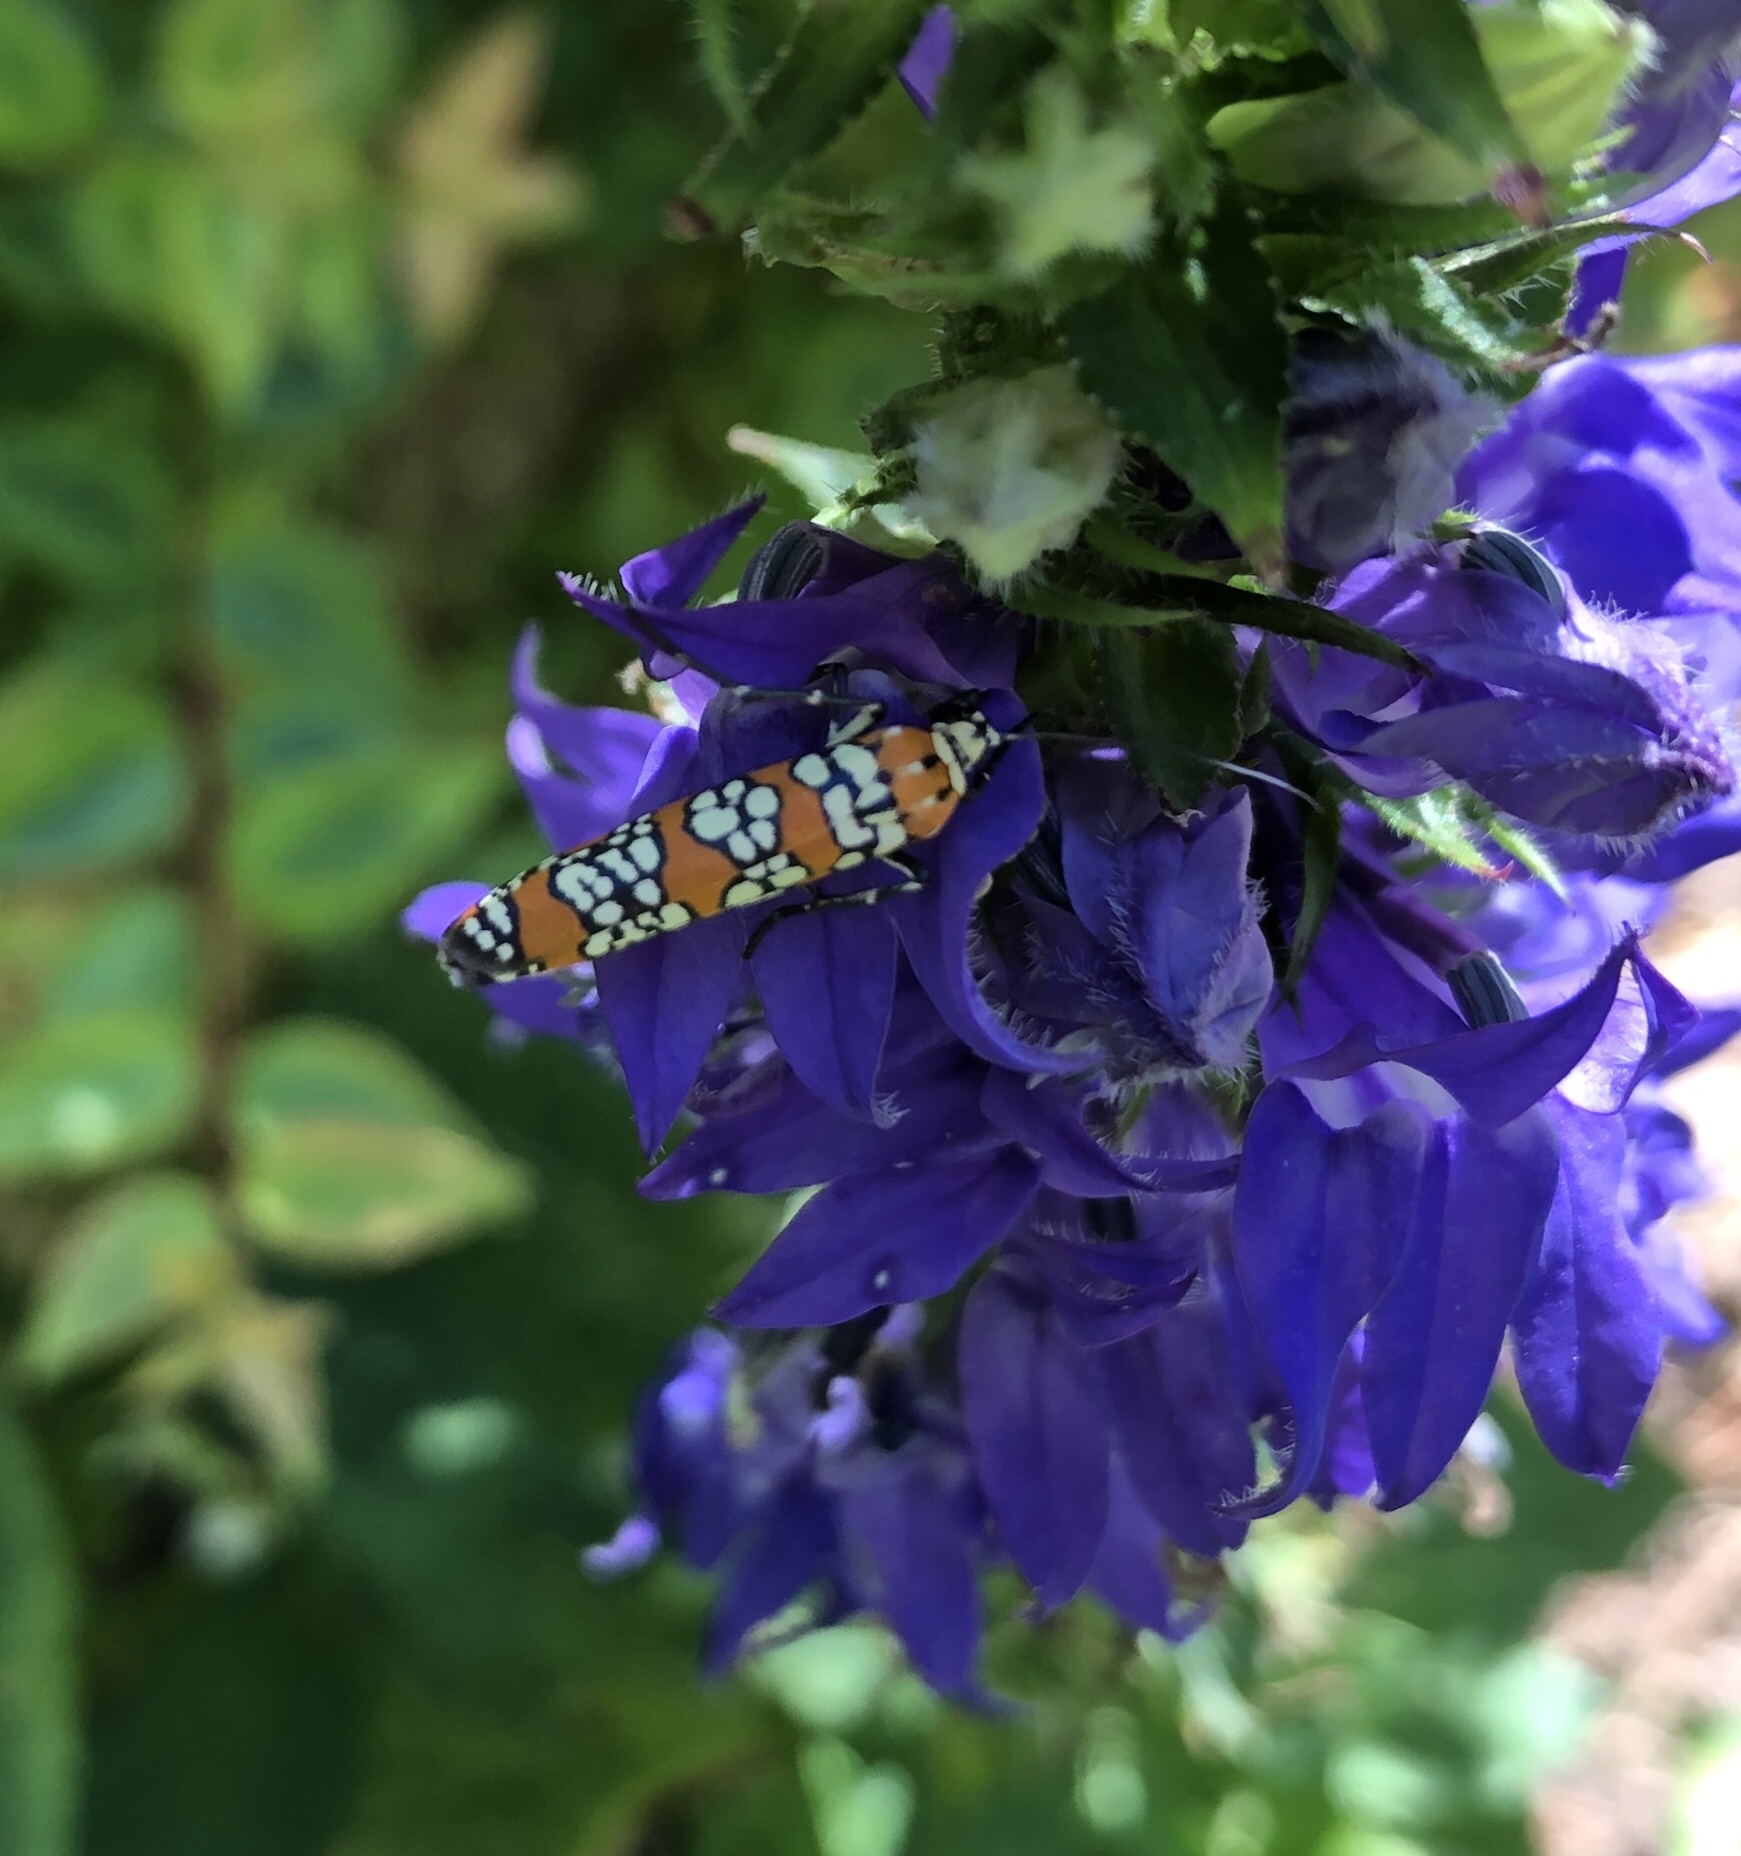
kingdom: Animalia
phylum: Arthropoda
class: Insecta
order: Lepidoptera
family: Attevidae
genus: Atteva
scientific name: Atteva punctella
